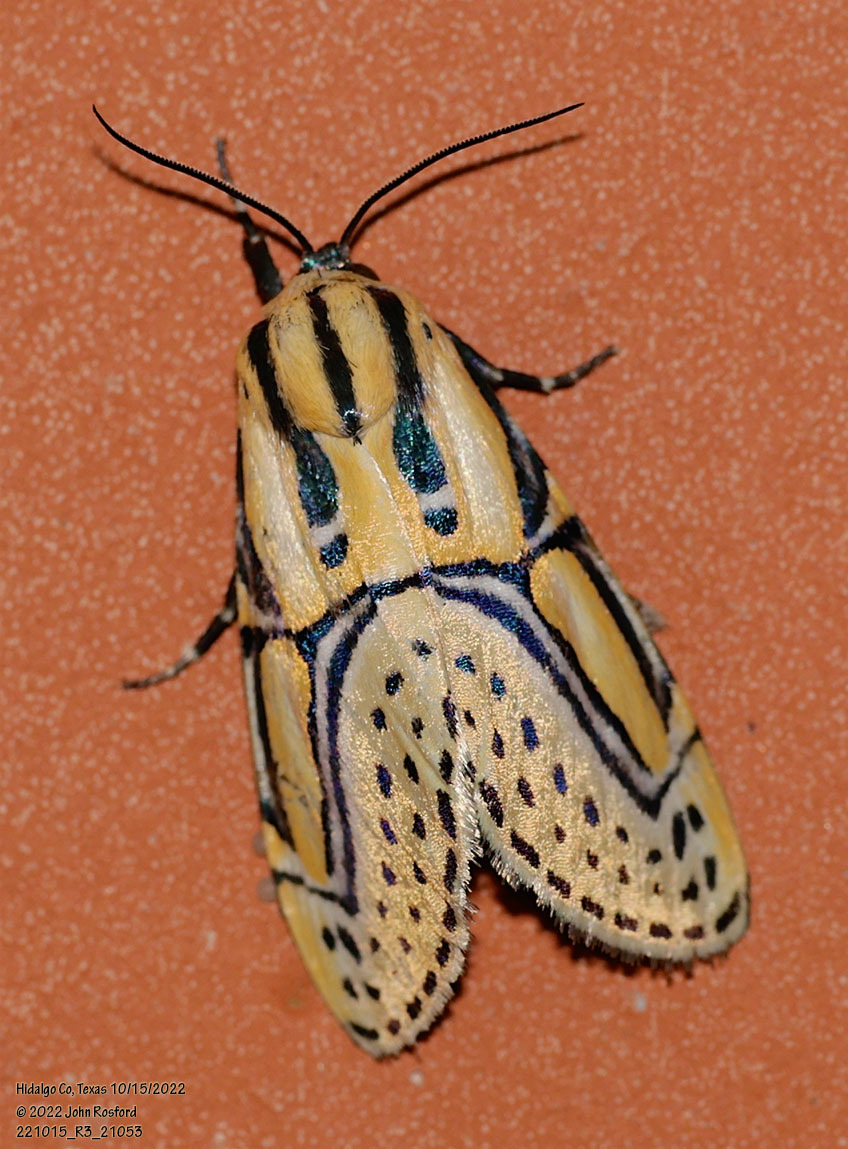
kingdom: Animalia
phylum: Arthropoda
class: Insecta
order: Lepidoptera
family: Erebidae
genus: Diphthera
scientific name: Diphthera festiva
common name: Hieroglyphic moth
